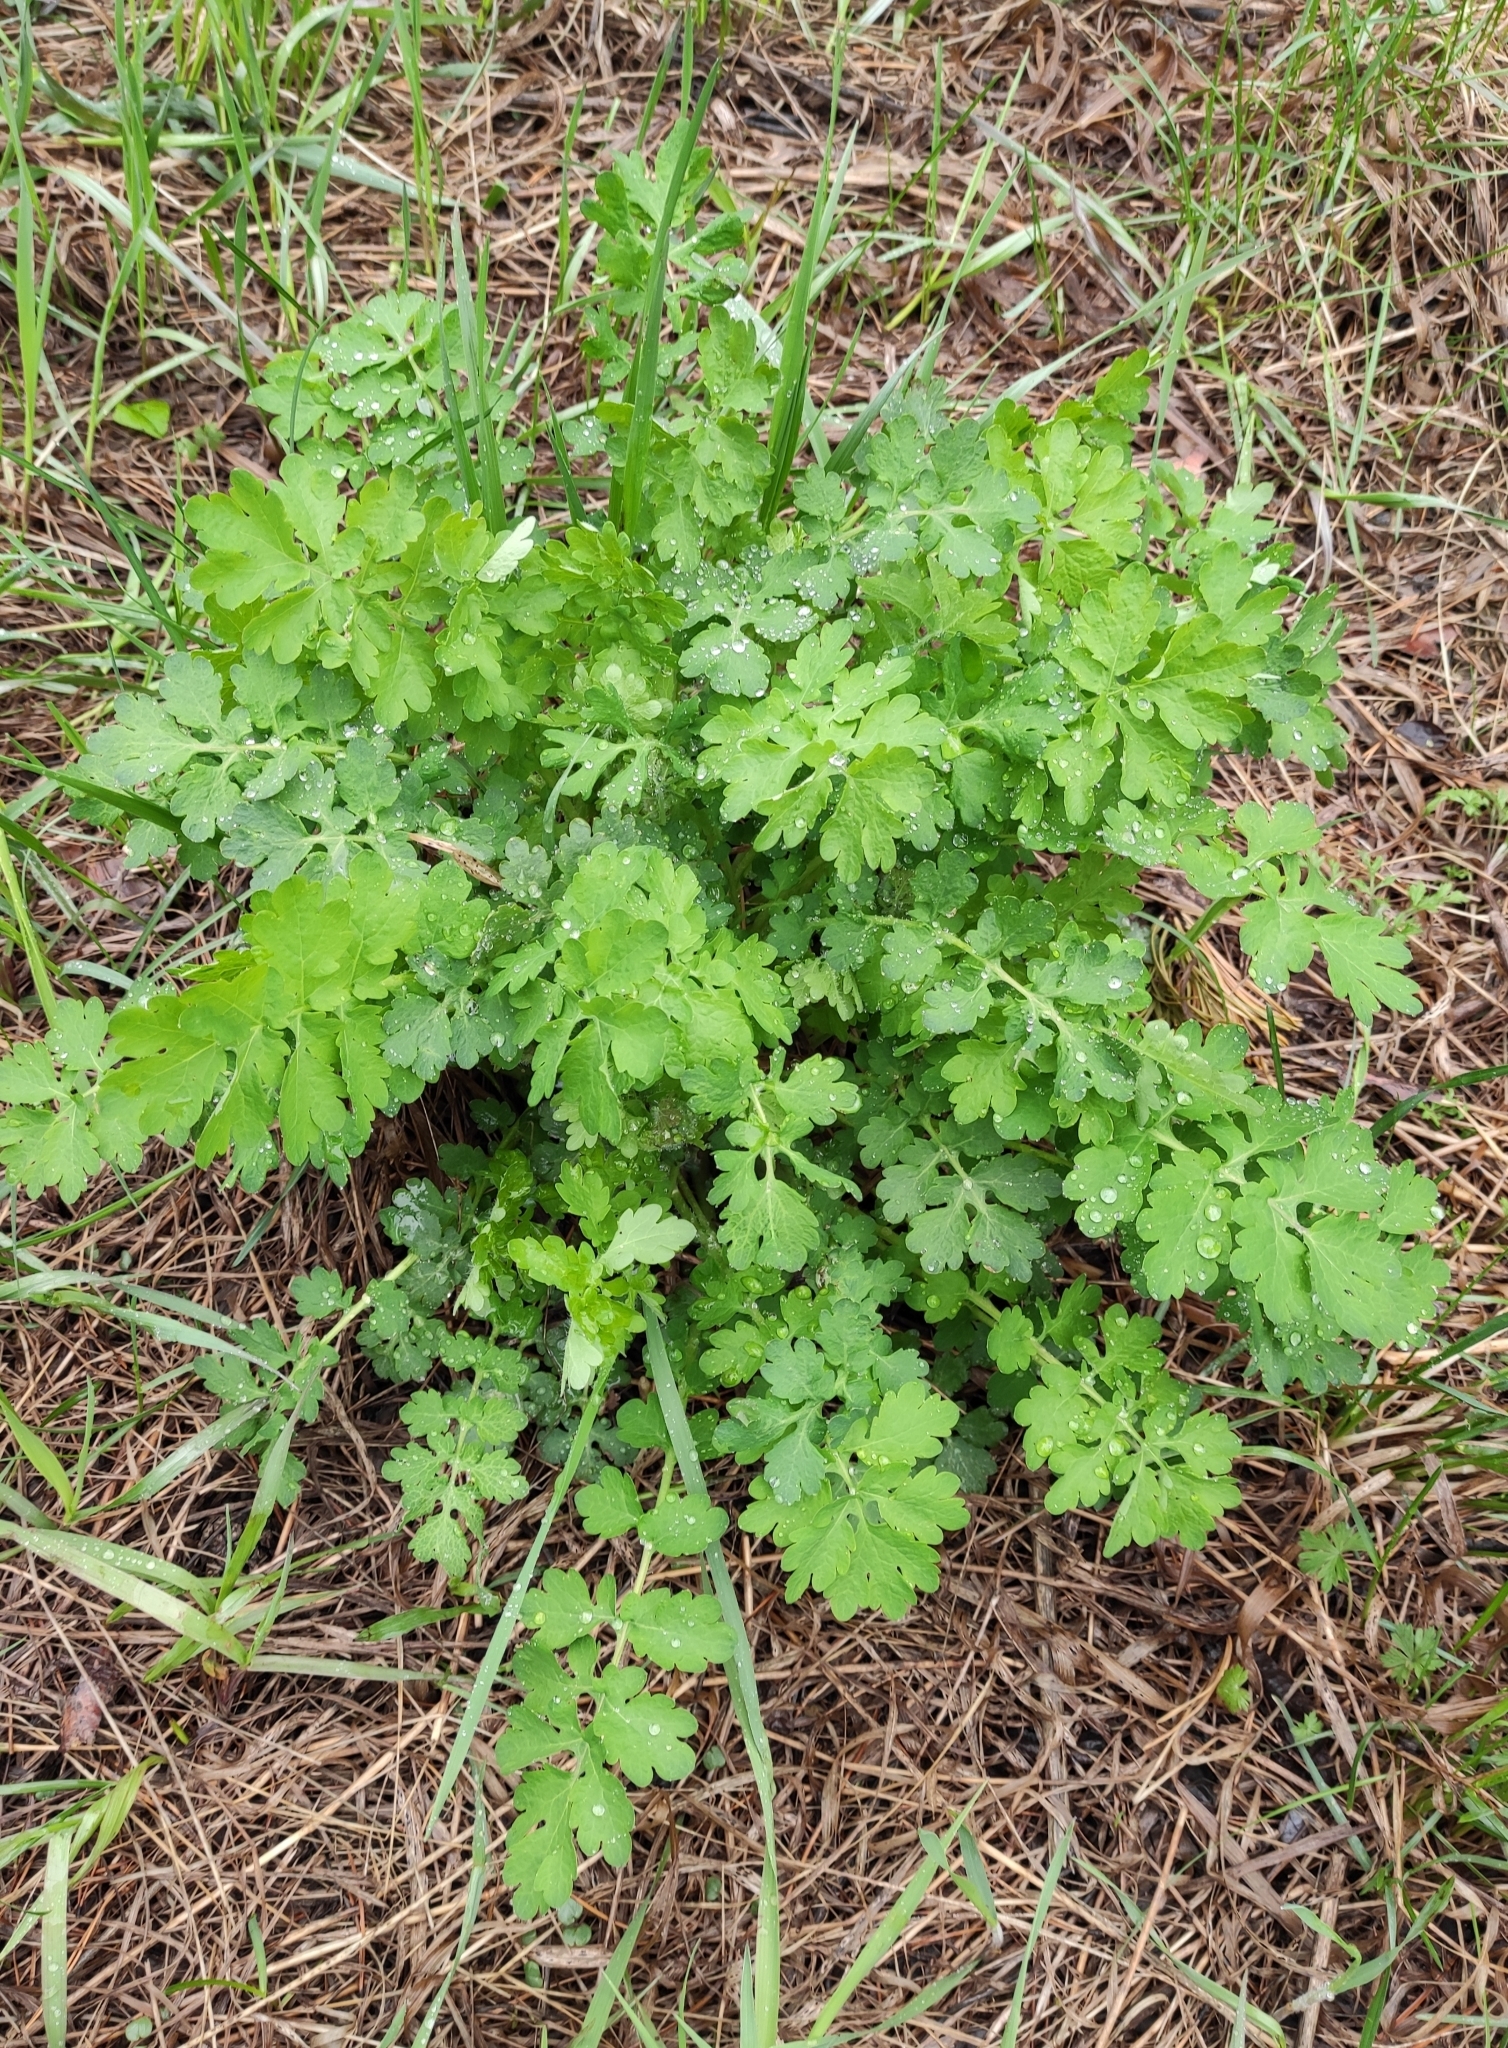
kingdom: Plantae
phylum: Tracheophyta
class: Magnoliopsida
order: Ranunculales
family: Papaveraceae
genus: Chelidonium
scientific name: Chelidonium majus
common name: Greater celandine
